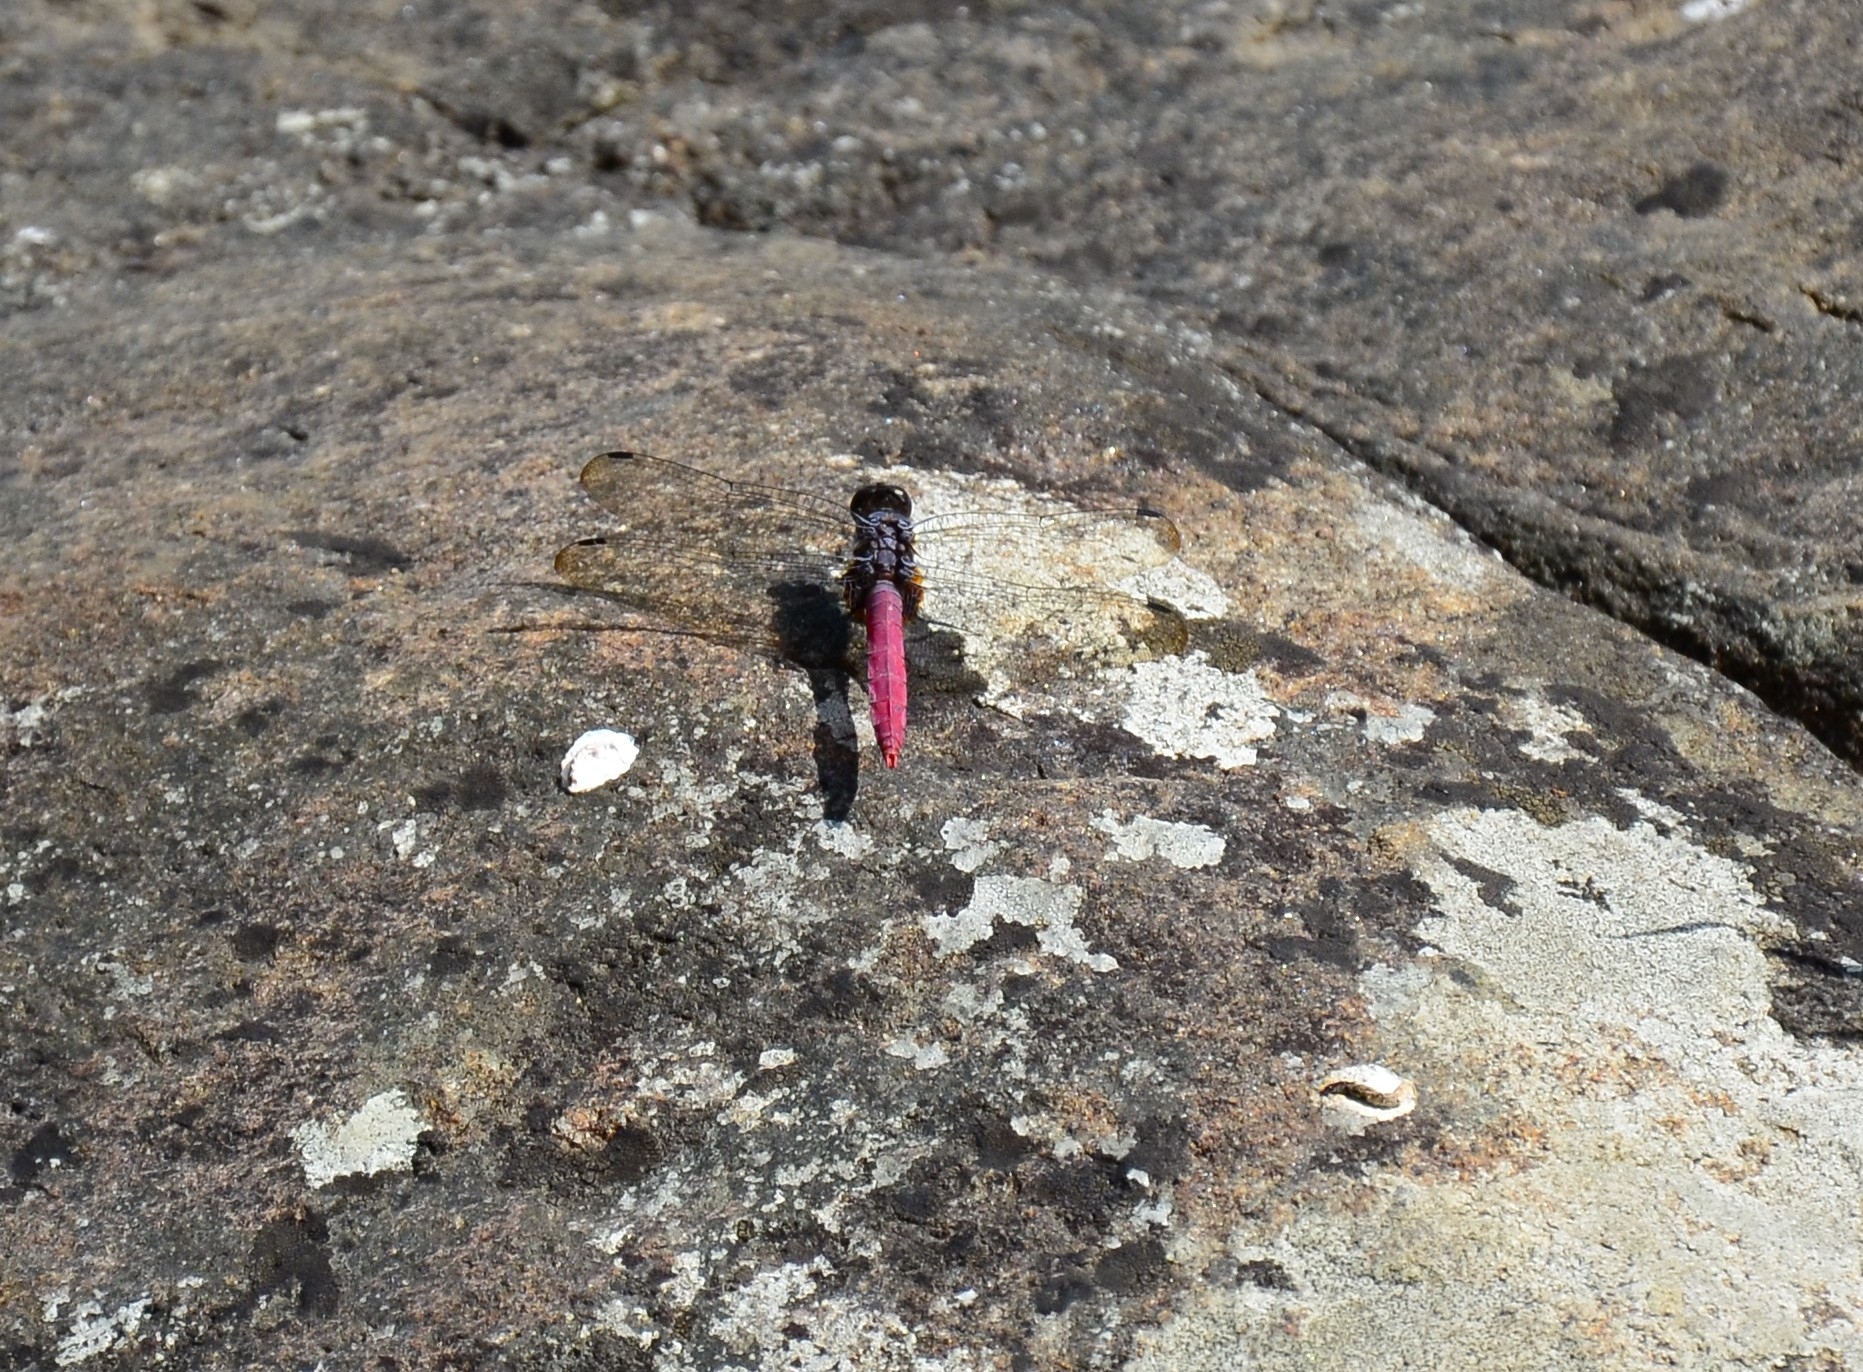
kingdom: Animalia
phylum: Arthropoda
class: Insecta
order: Odonata
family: Libellulidae
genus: Orthetrum
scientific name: Orthetrum pruinosum
